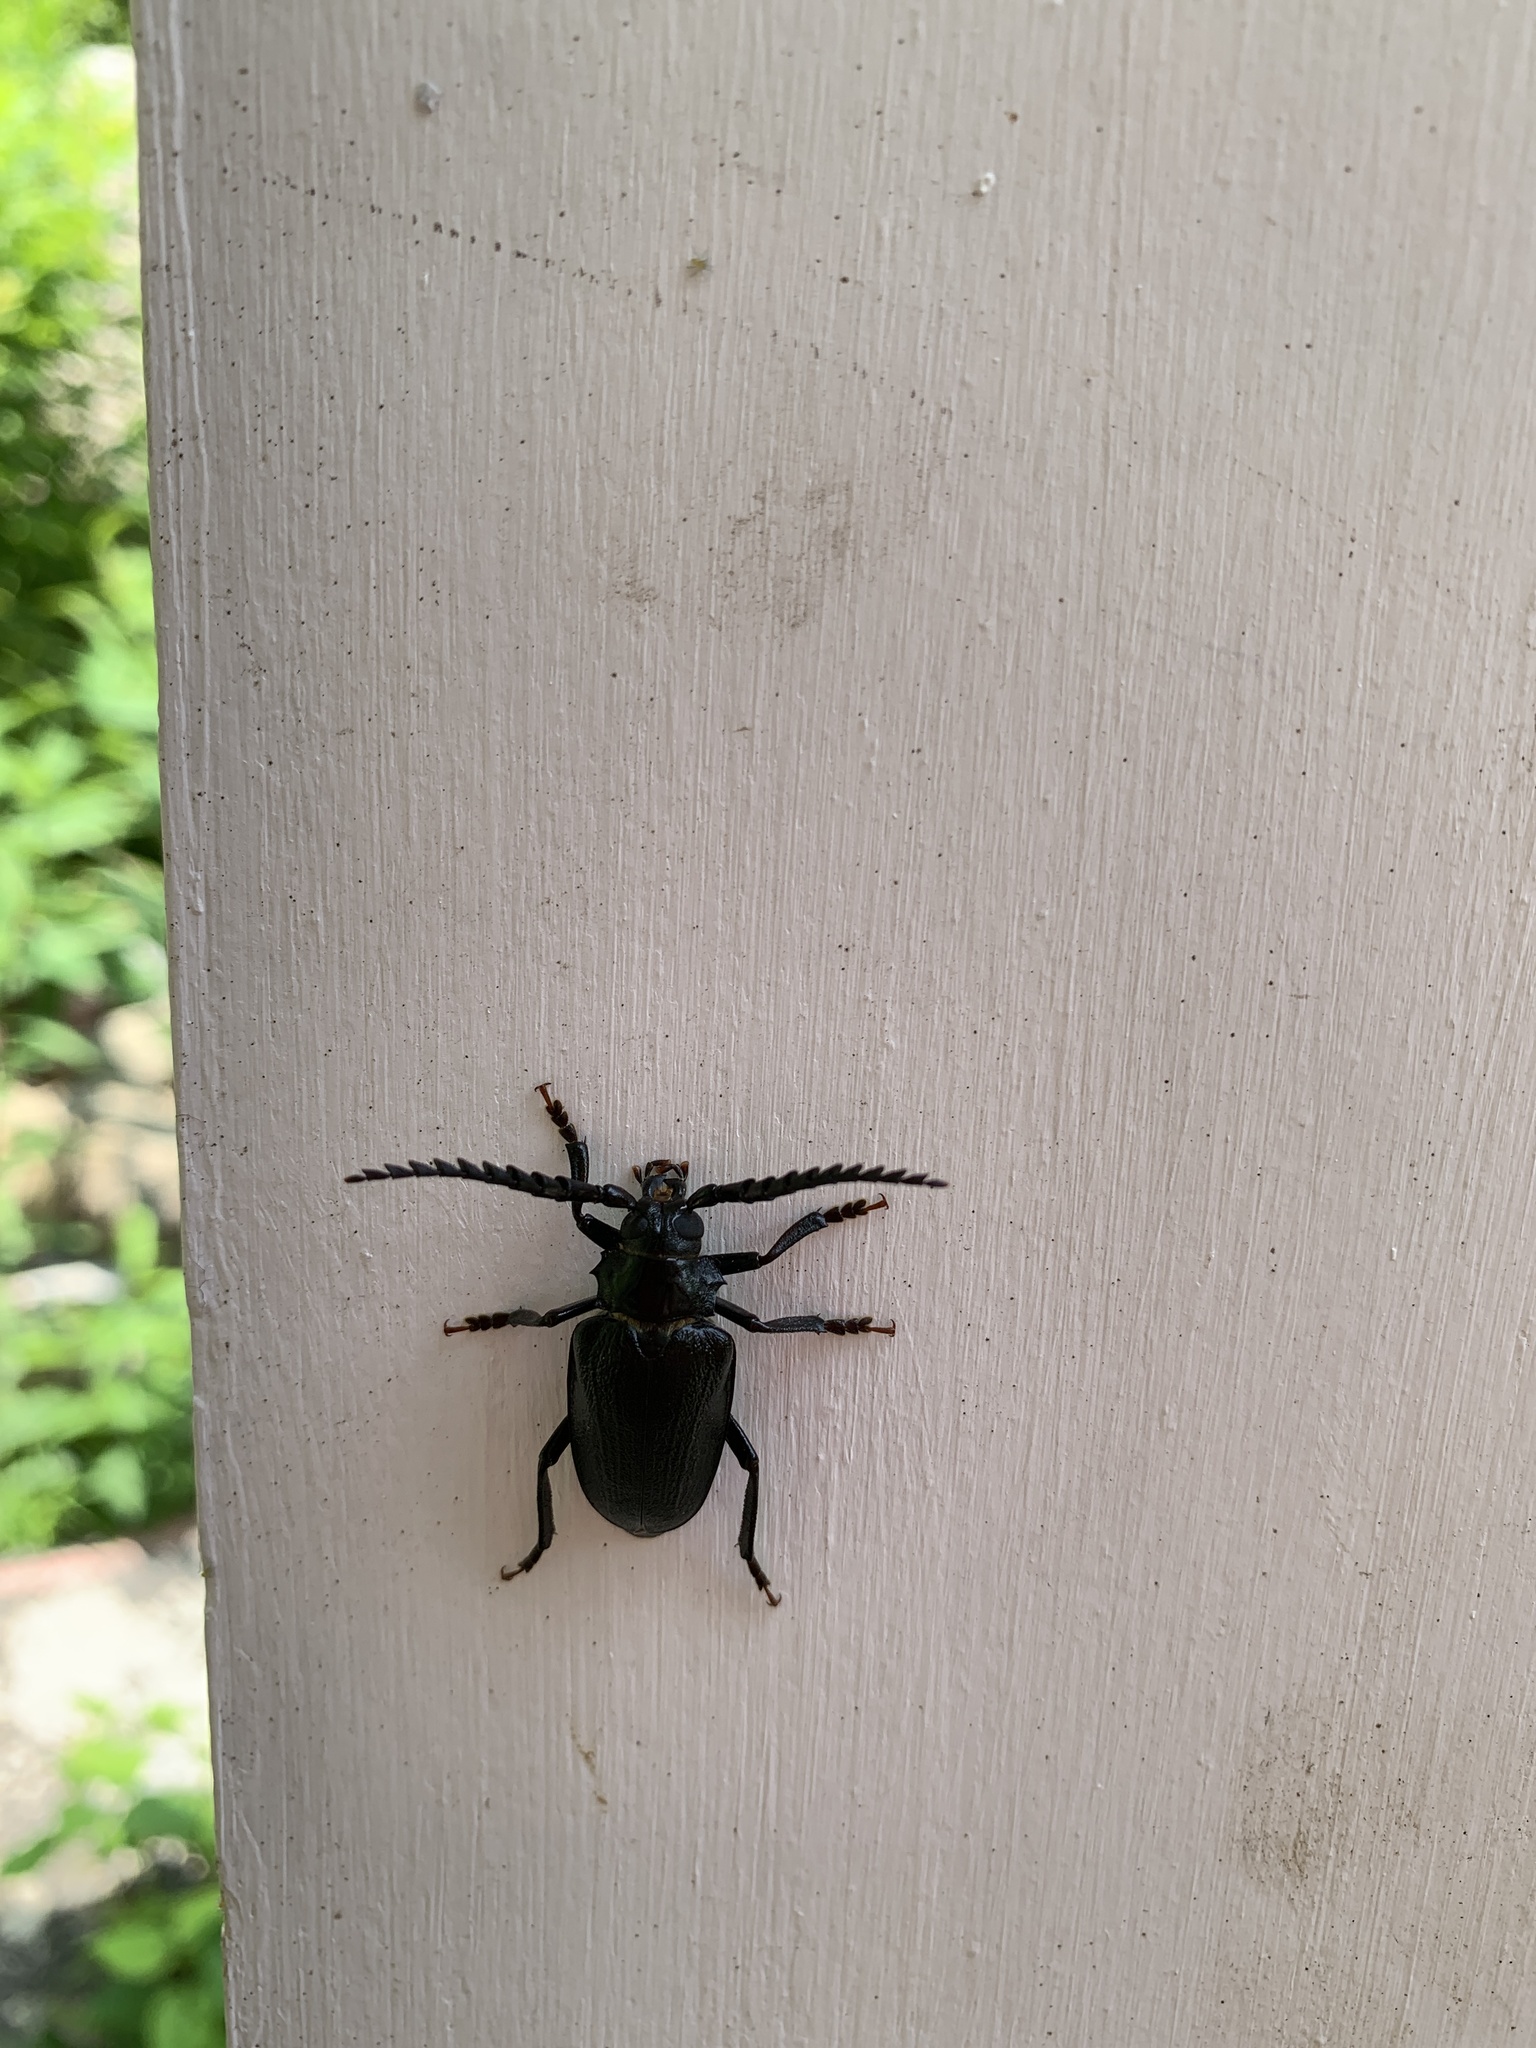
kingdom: Animalia
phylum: Arthropoda
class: Insecta
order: Coleoptera
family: Cerambycidae
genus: Prionus
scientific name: Prionus laticollis
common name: Broad necked prionus
